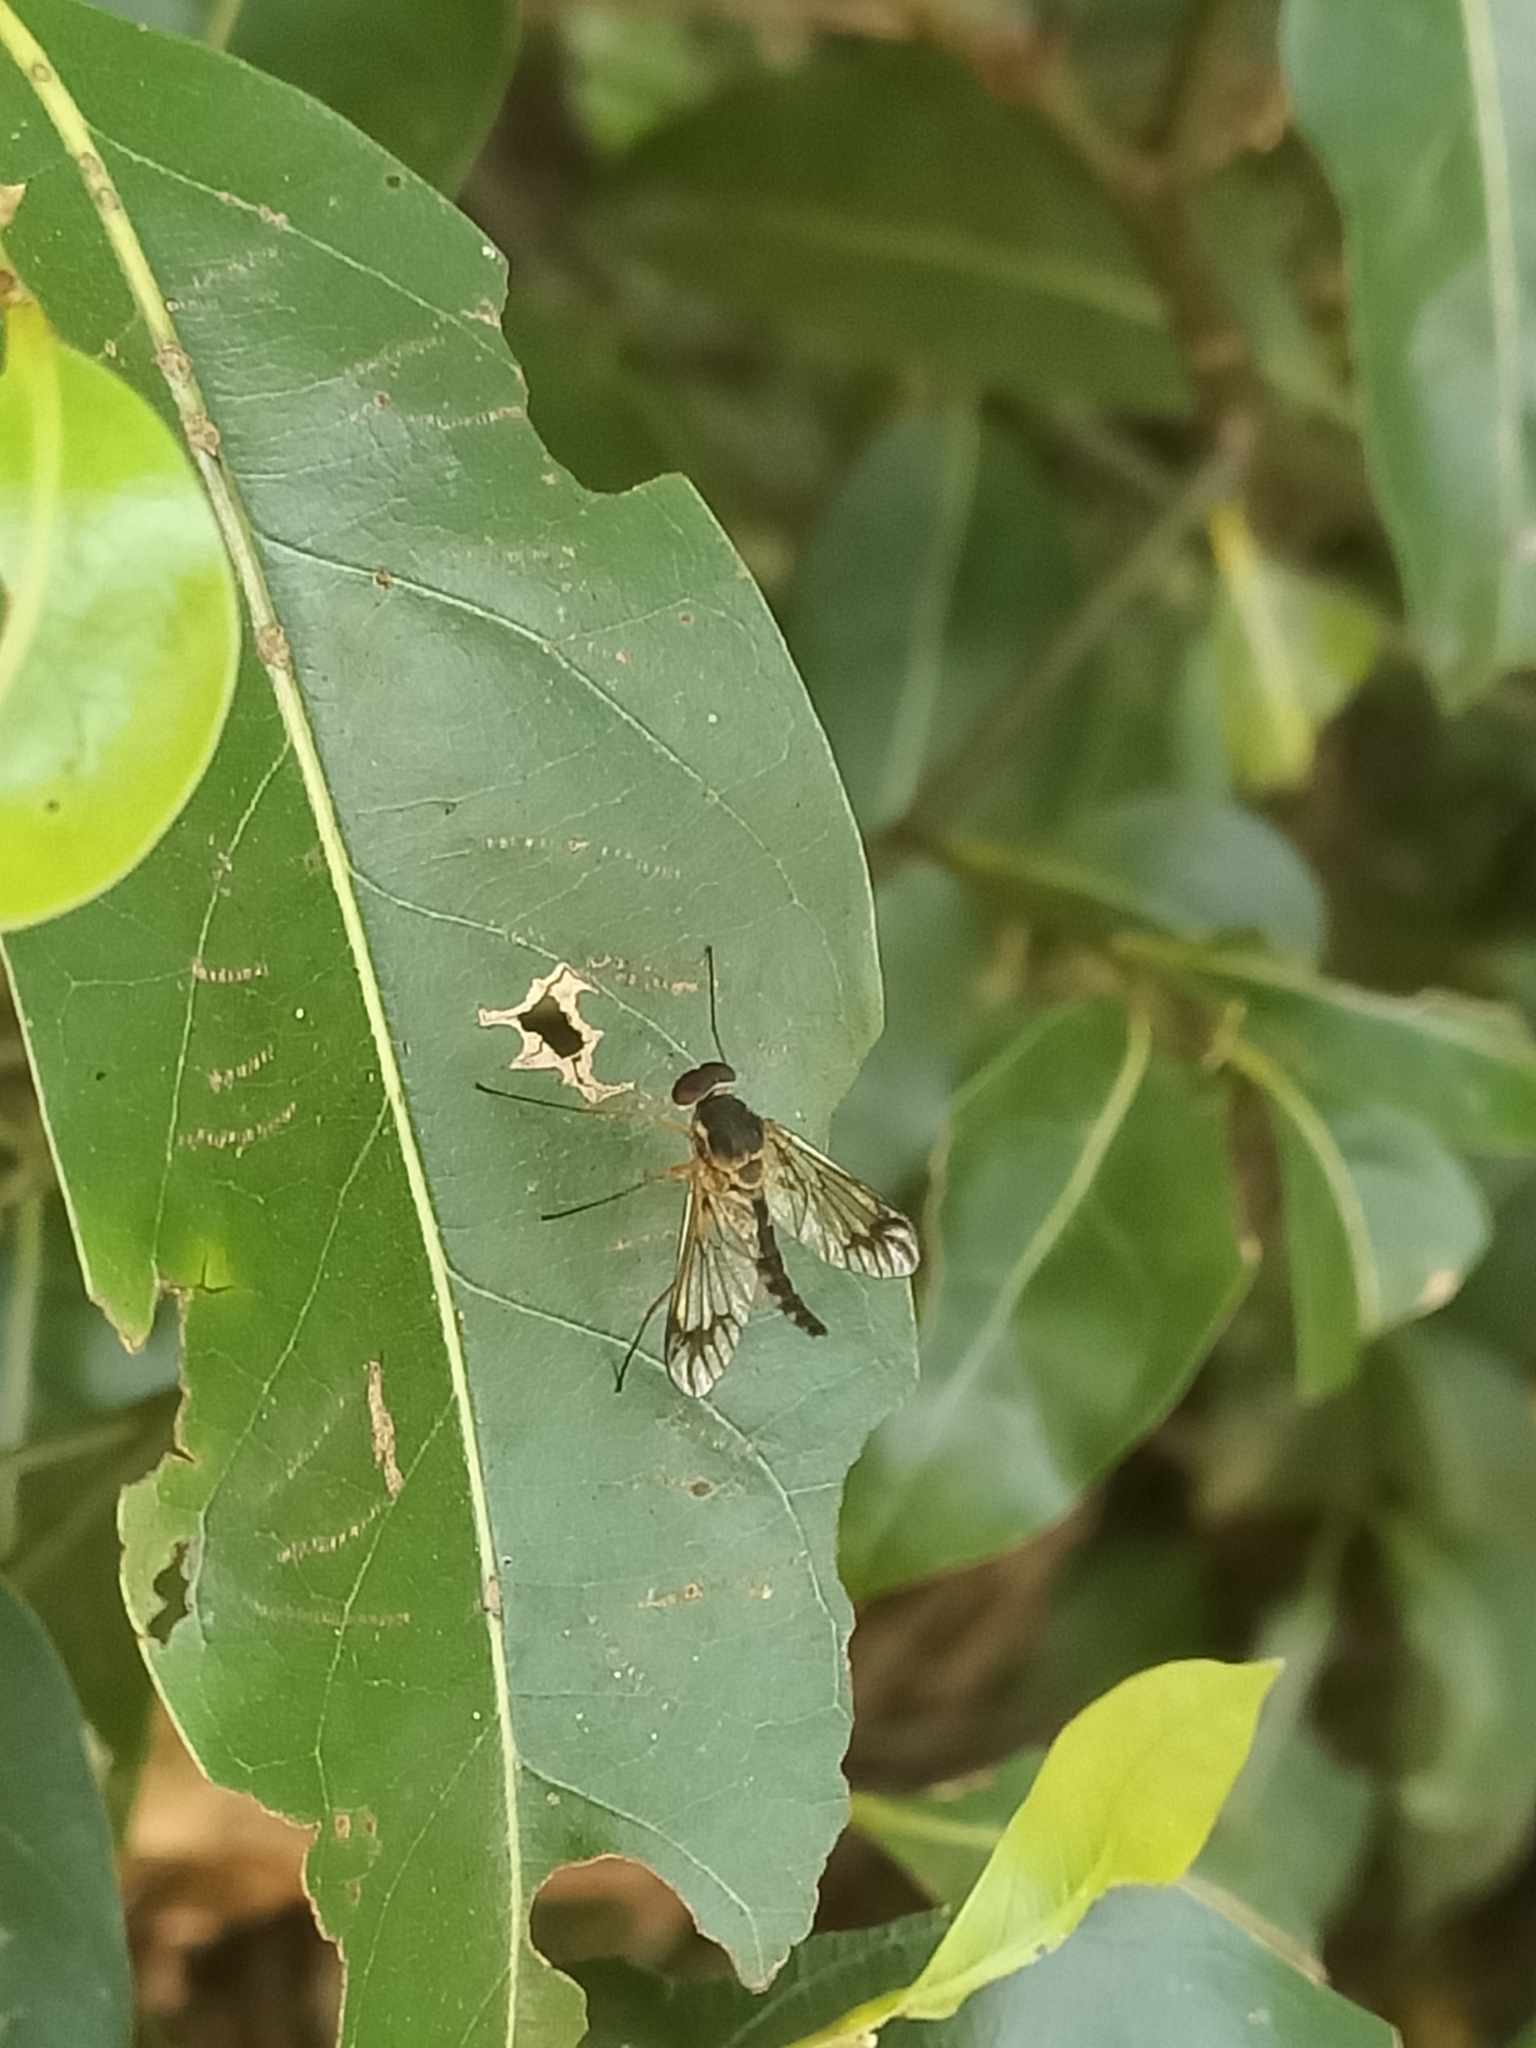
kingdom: Animalia
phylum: Arthropoda
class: Insecta
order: Diptera
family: Rhagionidae
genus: Chrysopilus
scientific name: Chrysopilus mackerrasi
